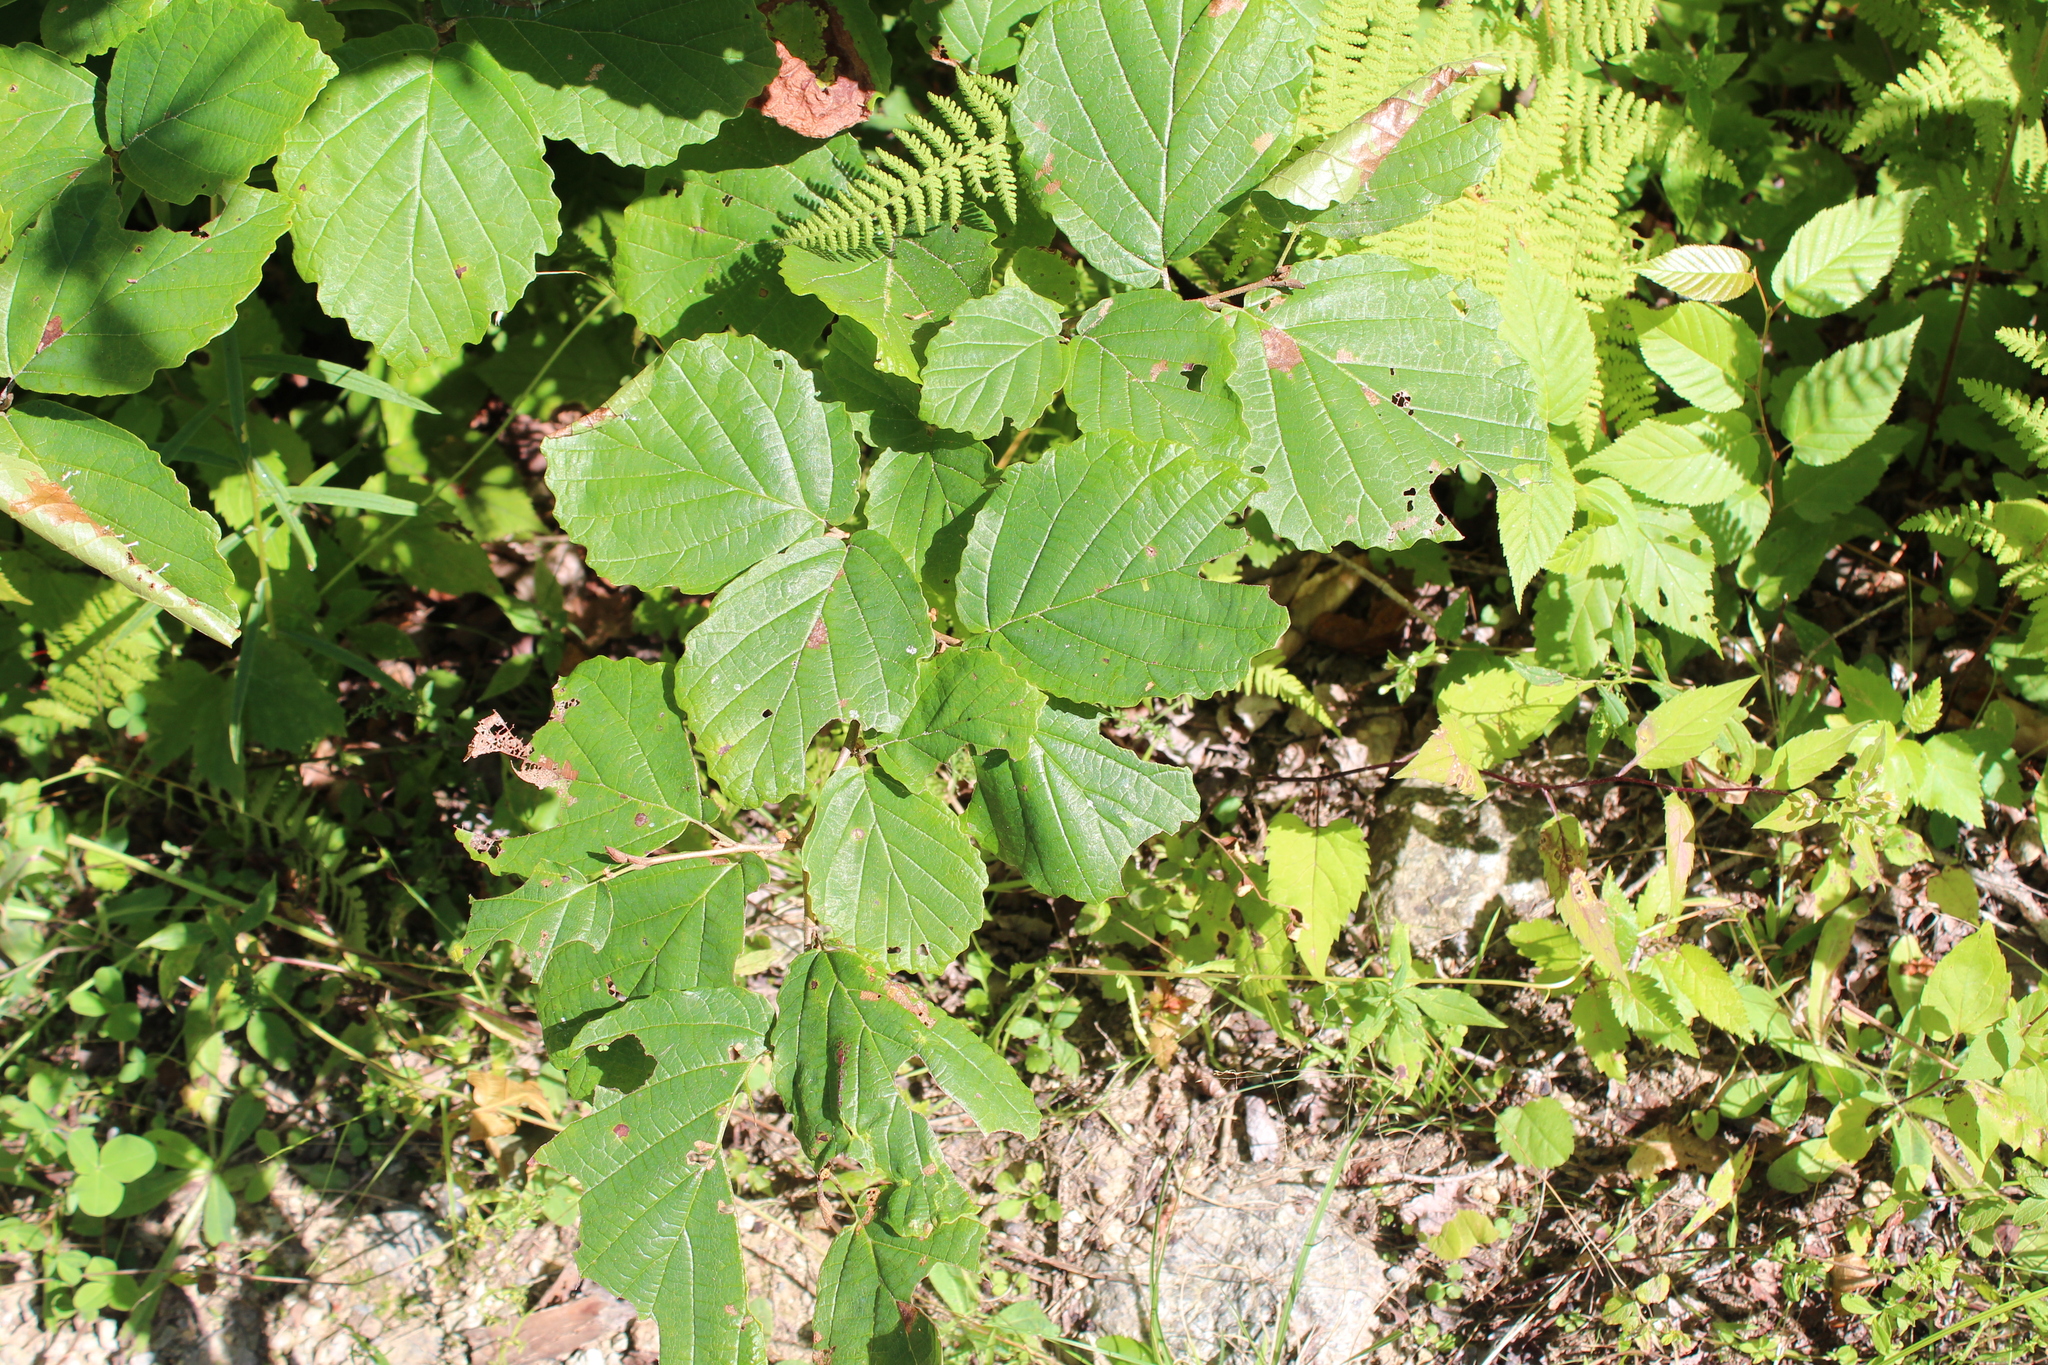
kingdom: Plantae
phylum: Tracheophyta
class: Magnoliopsida
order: Saxifragales
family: Hamamelidaceae
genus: Hamamelis
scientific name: Hamamelis virginiana
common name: Witch-hazel
